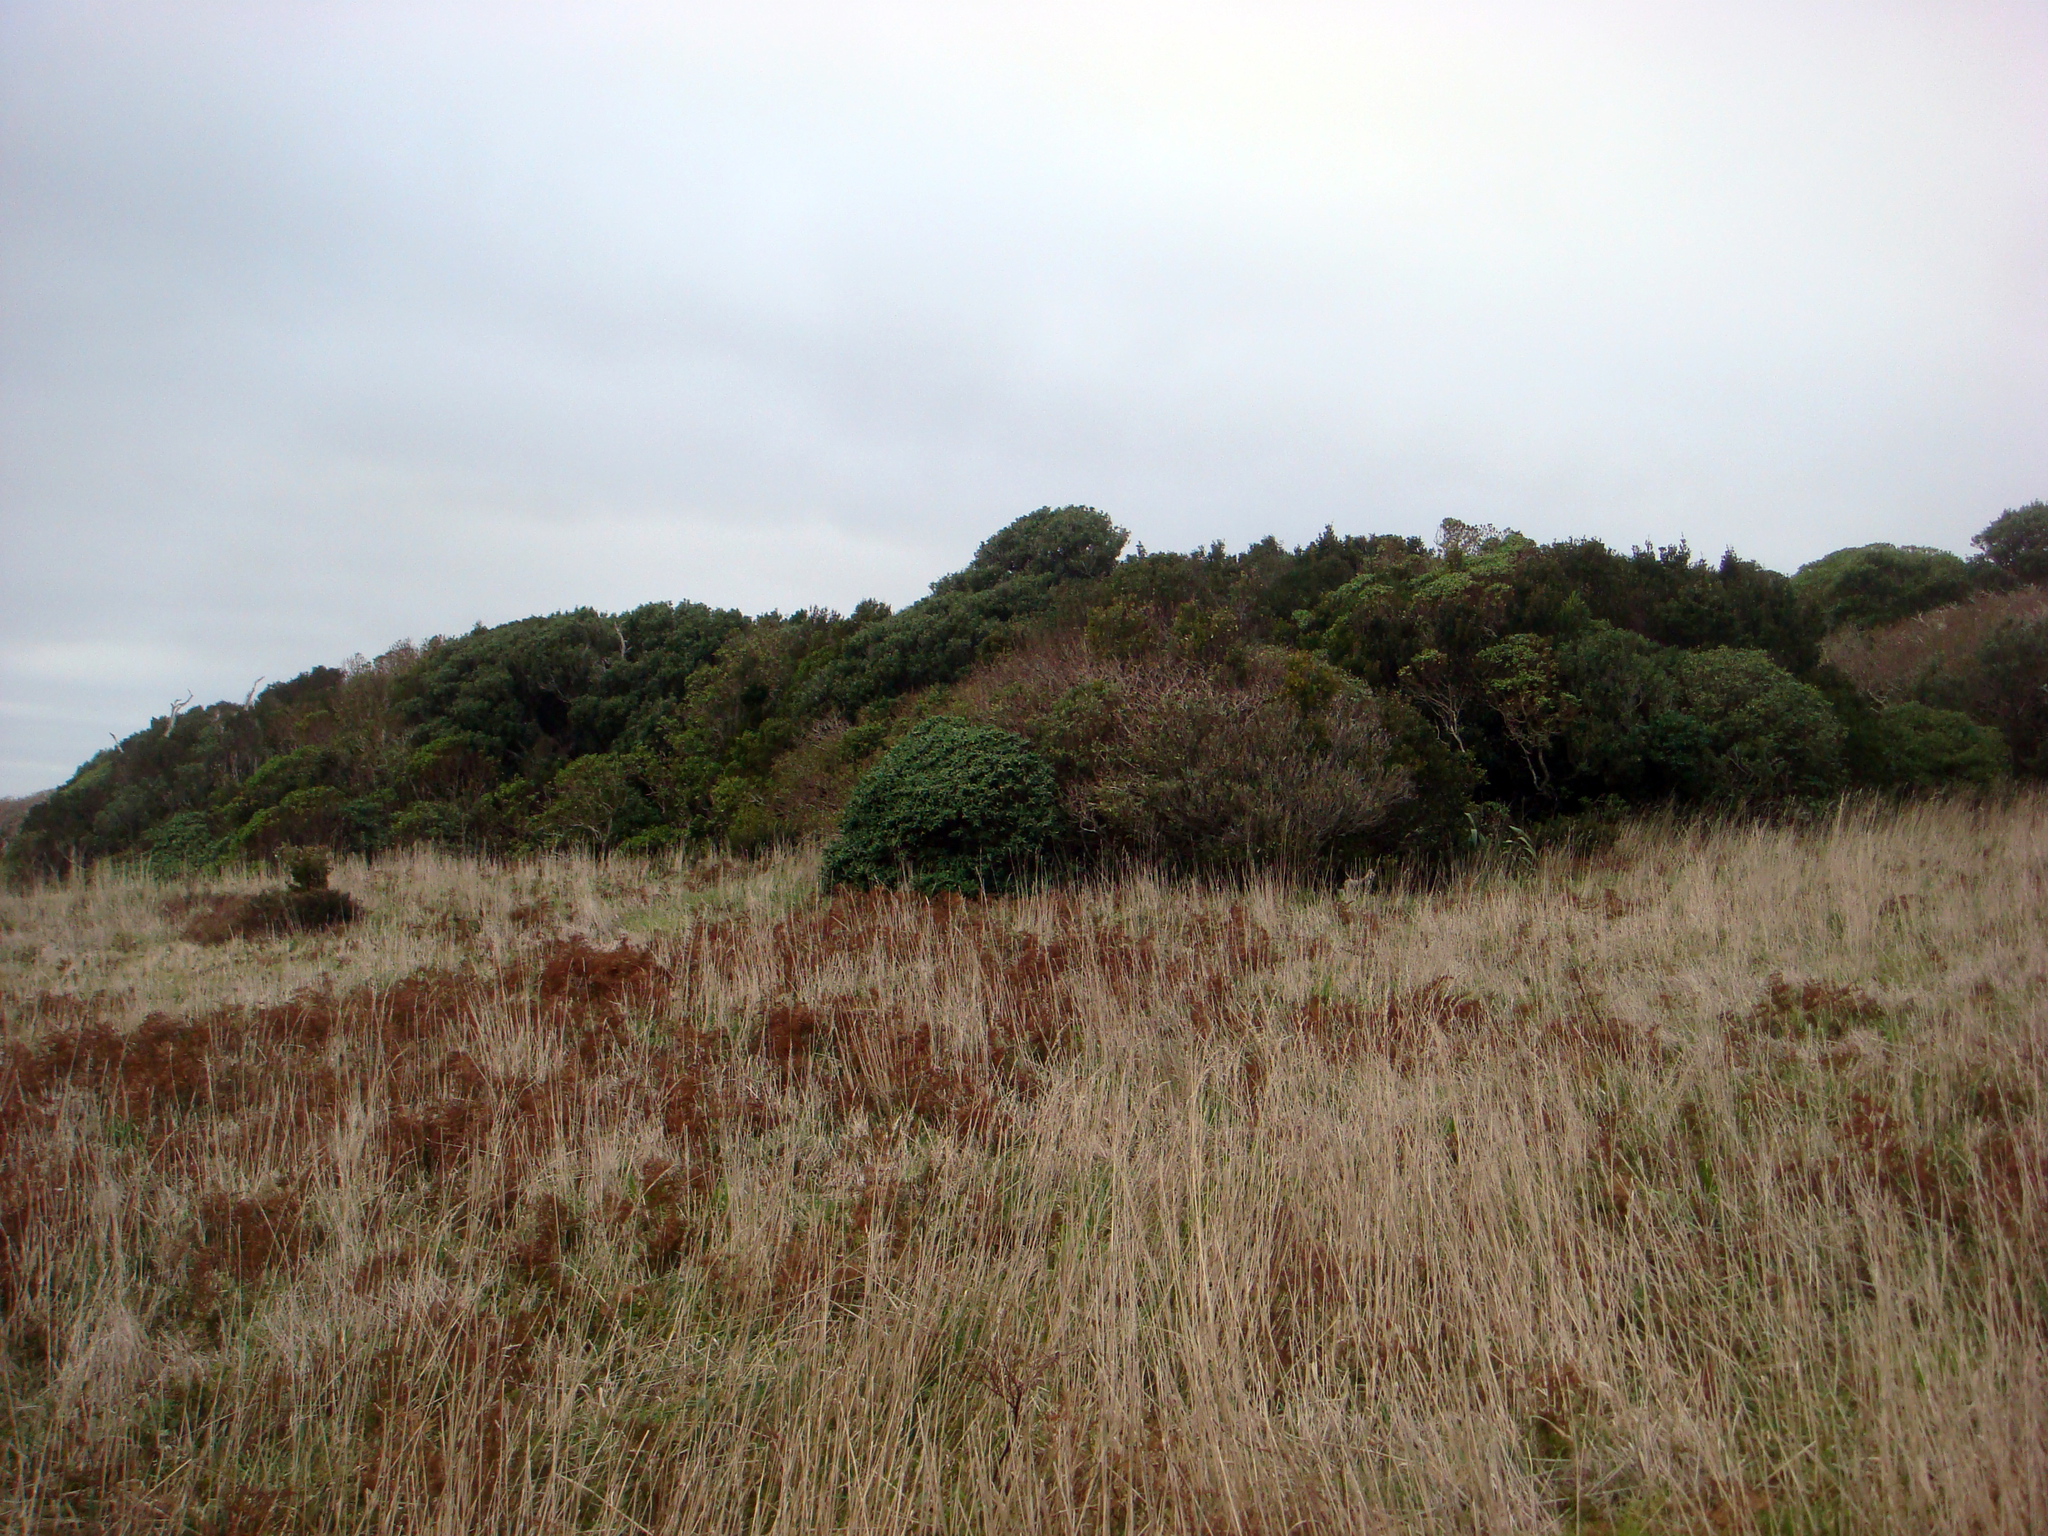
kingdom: Plantae
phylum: Tracheophyta
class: Polypodiopsida
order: Polypodiales
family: Dennstaedtiaceae
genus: Pteridium
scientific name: Pteridium esculentum
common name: Bracken fern
